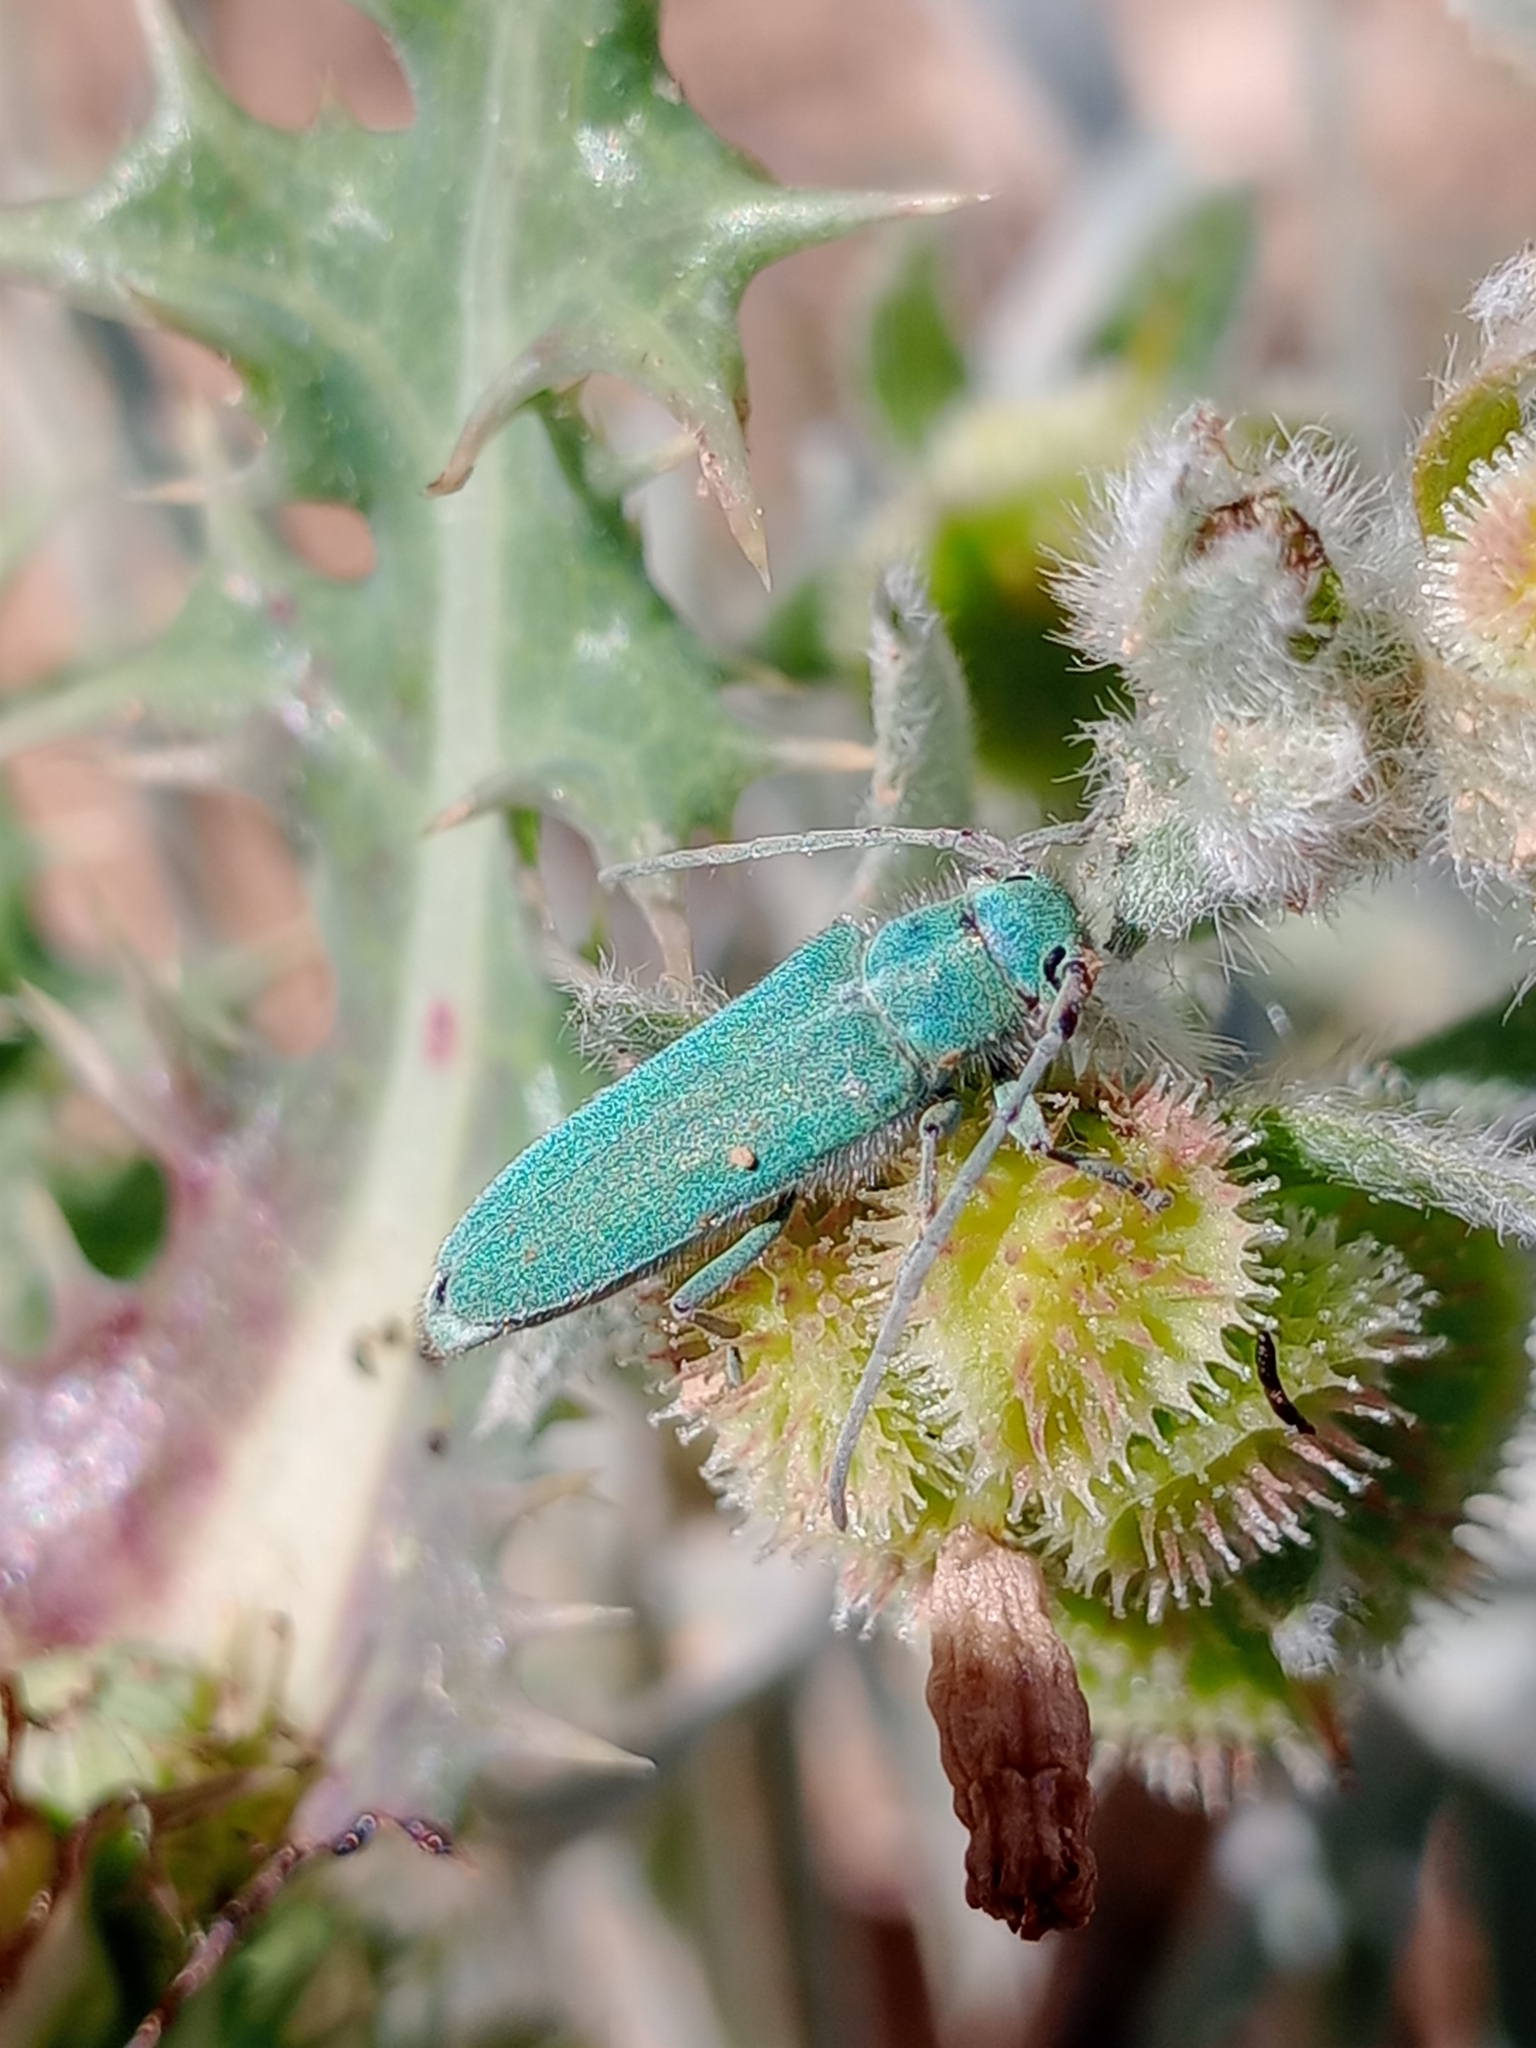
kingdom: Animalia
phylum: Arthropoda
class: Insecta
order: Coleoptera
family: Cerambycidae
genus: Phytoecia
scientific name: Phytoecia malachitica
